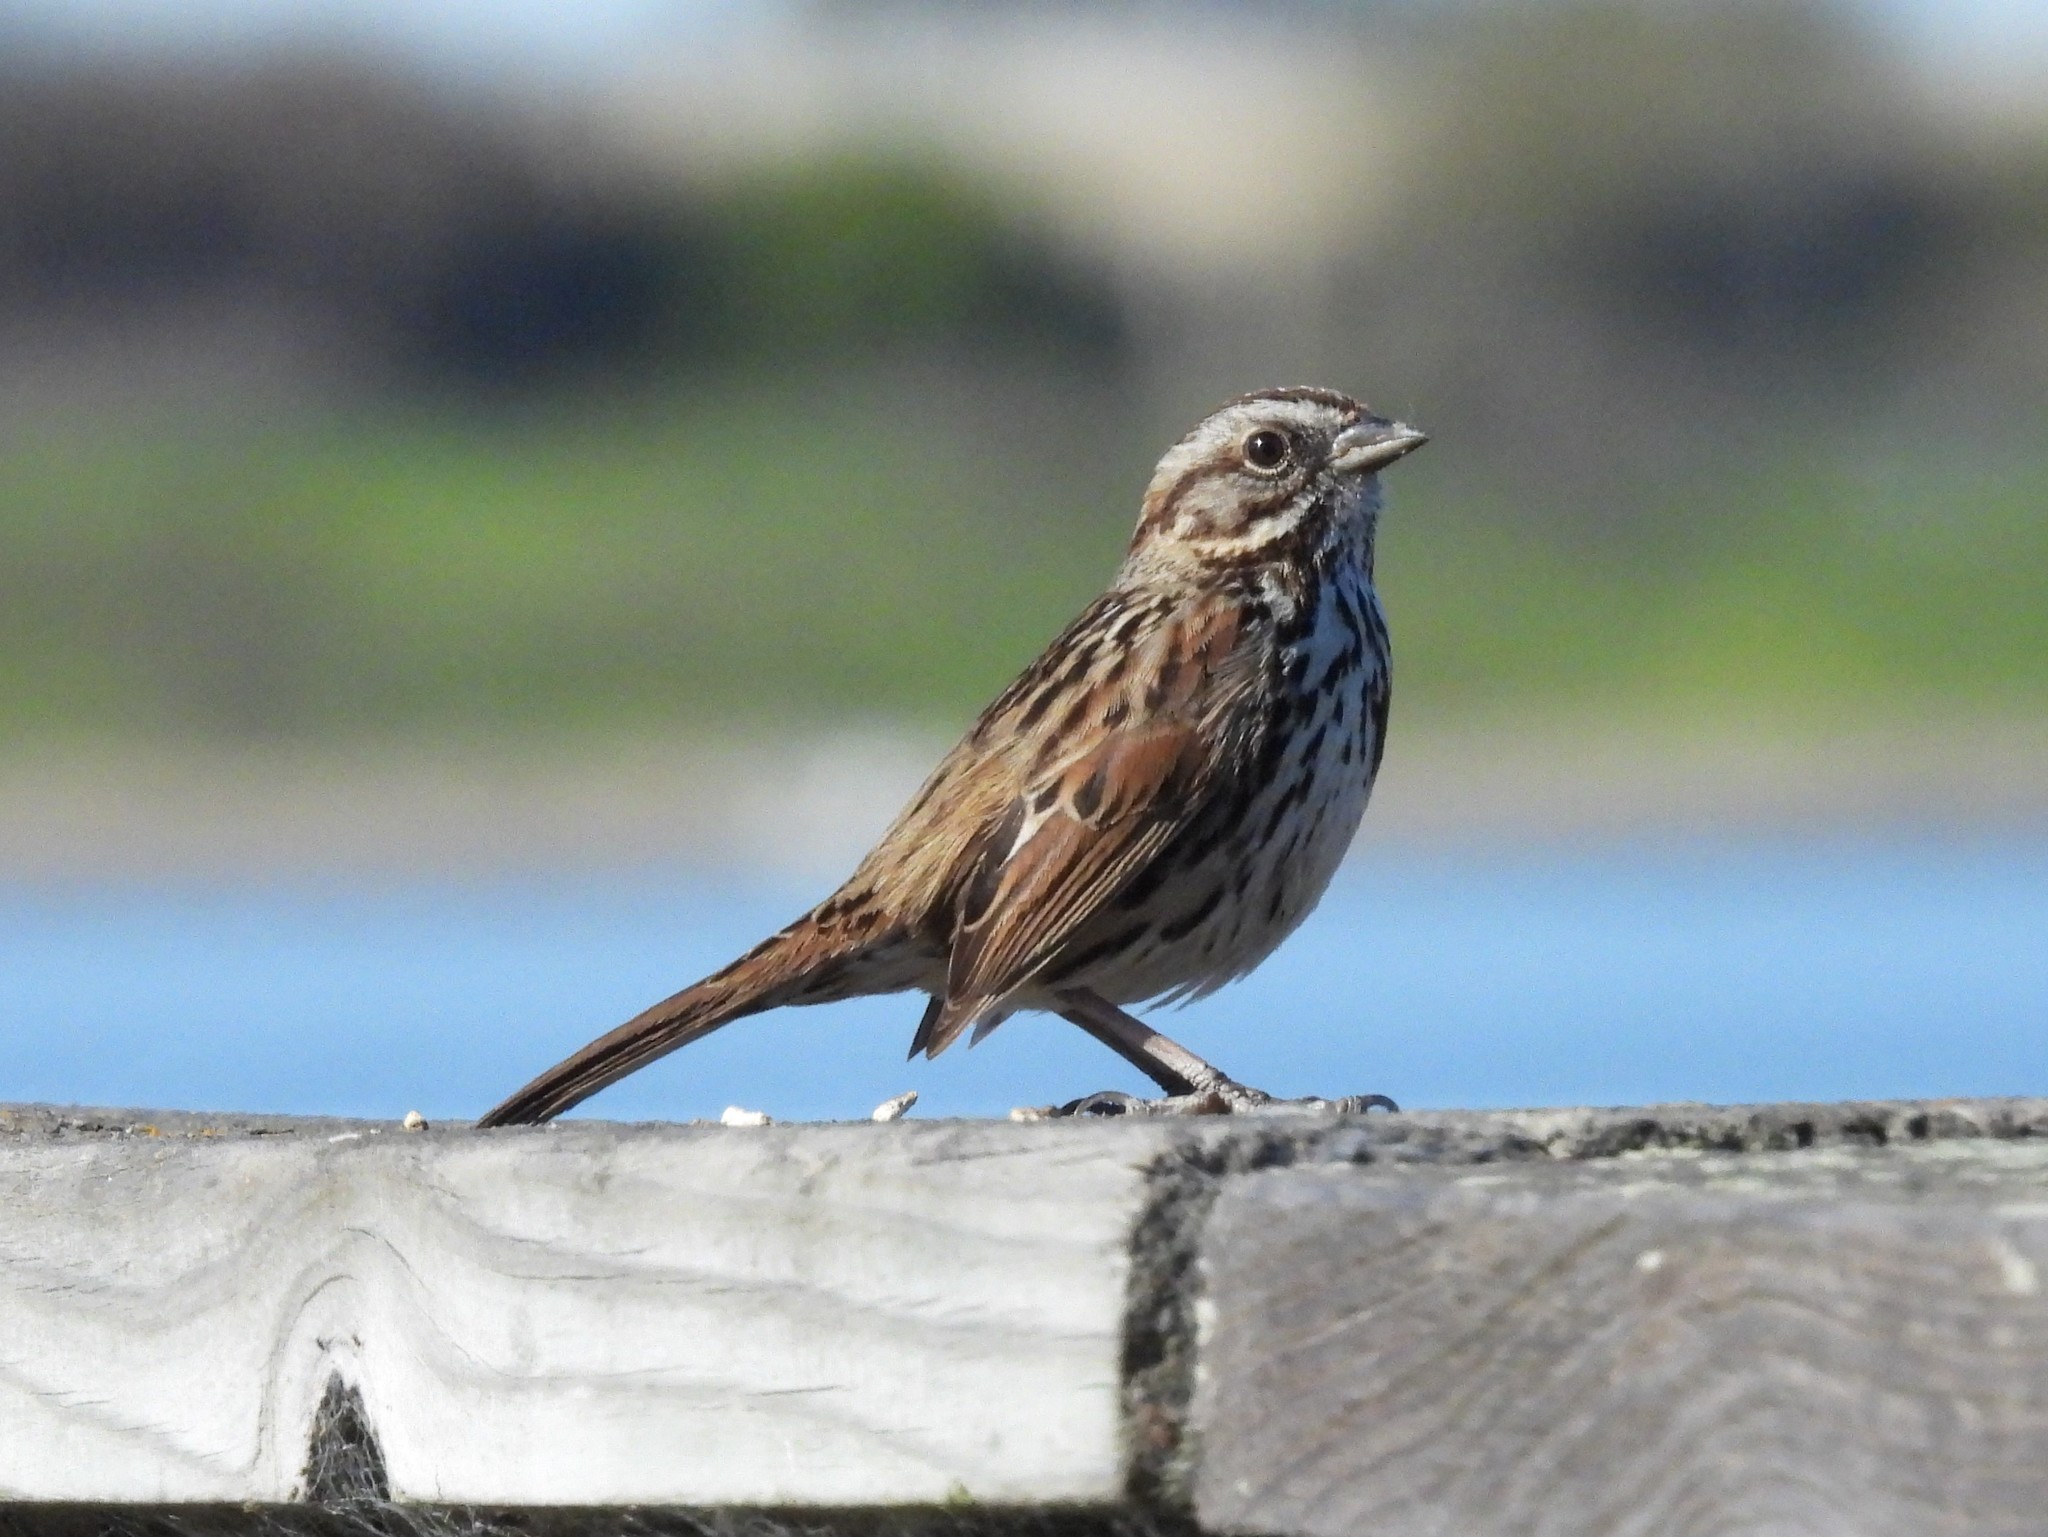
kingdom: Animalia
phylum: Chordata
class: Aves
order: Passeriformes
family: Passerellidae
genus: Melospiza
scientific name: Melospiza melodia
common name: Song sparrow
